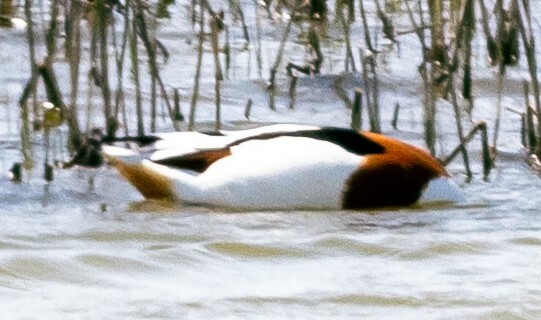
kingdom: Animalia
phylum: Chordata
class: Aves
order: Anseriformes
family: Anatidae
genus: Tadorna
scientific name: Tadorna tadorna
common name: Common shelduck
